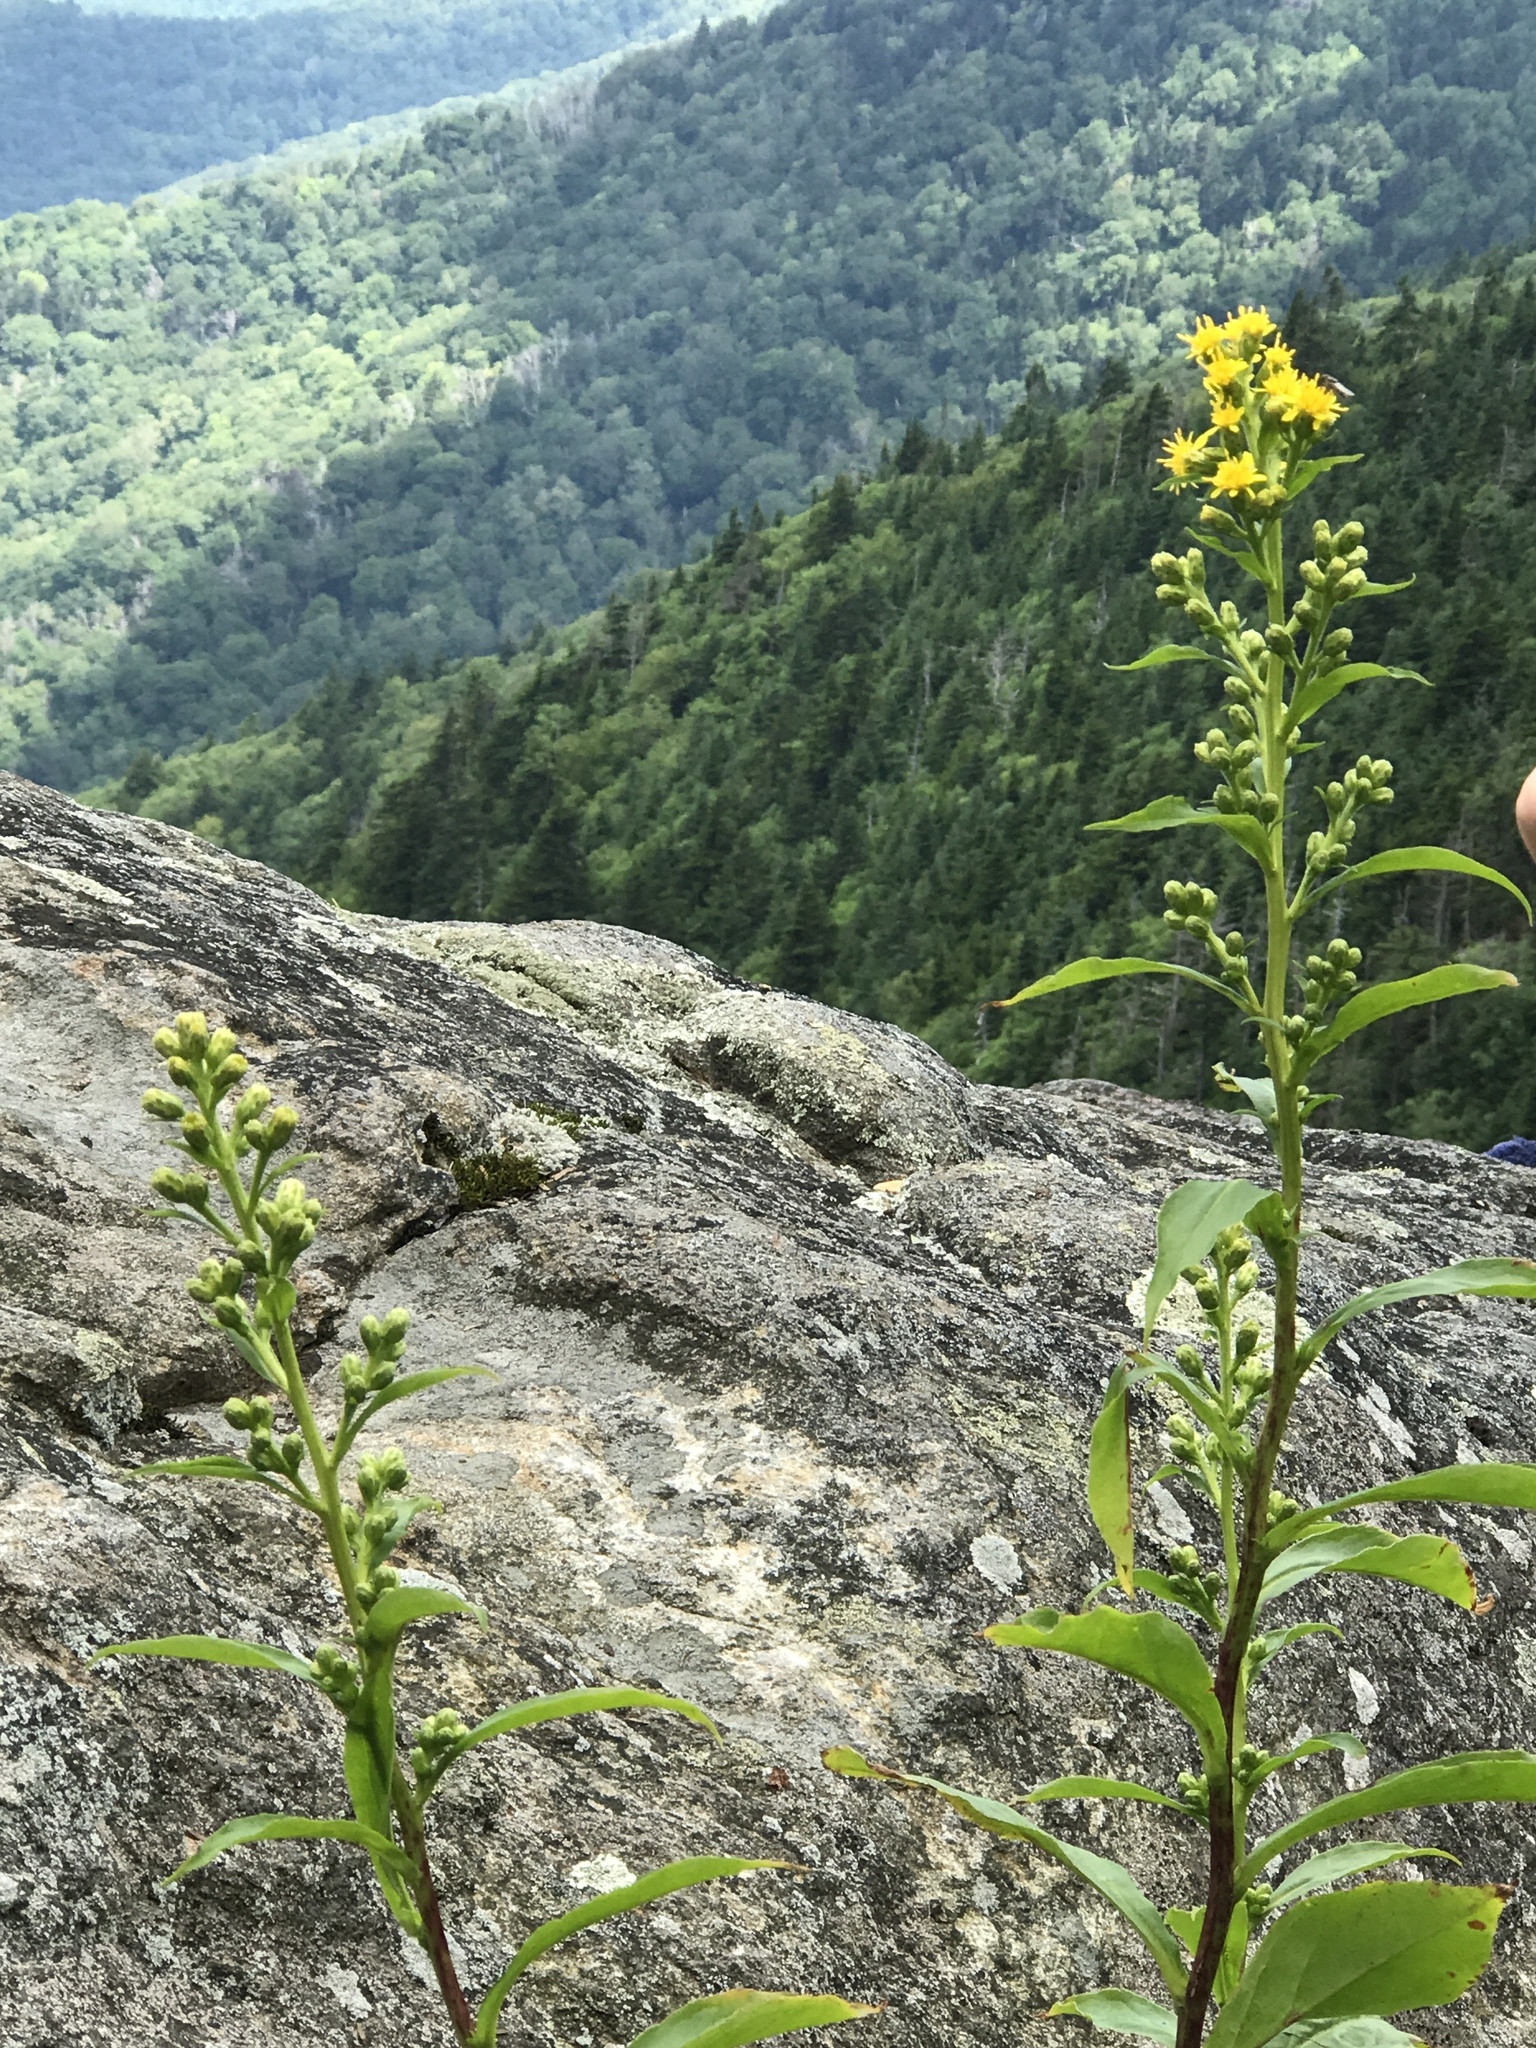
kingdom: Plantae
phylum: Tracheophyta
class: Magnoliopsida
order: Asterales
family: Asteraceae
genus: Solidago
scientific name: Solidago glomerata
